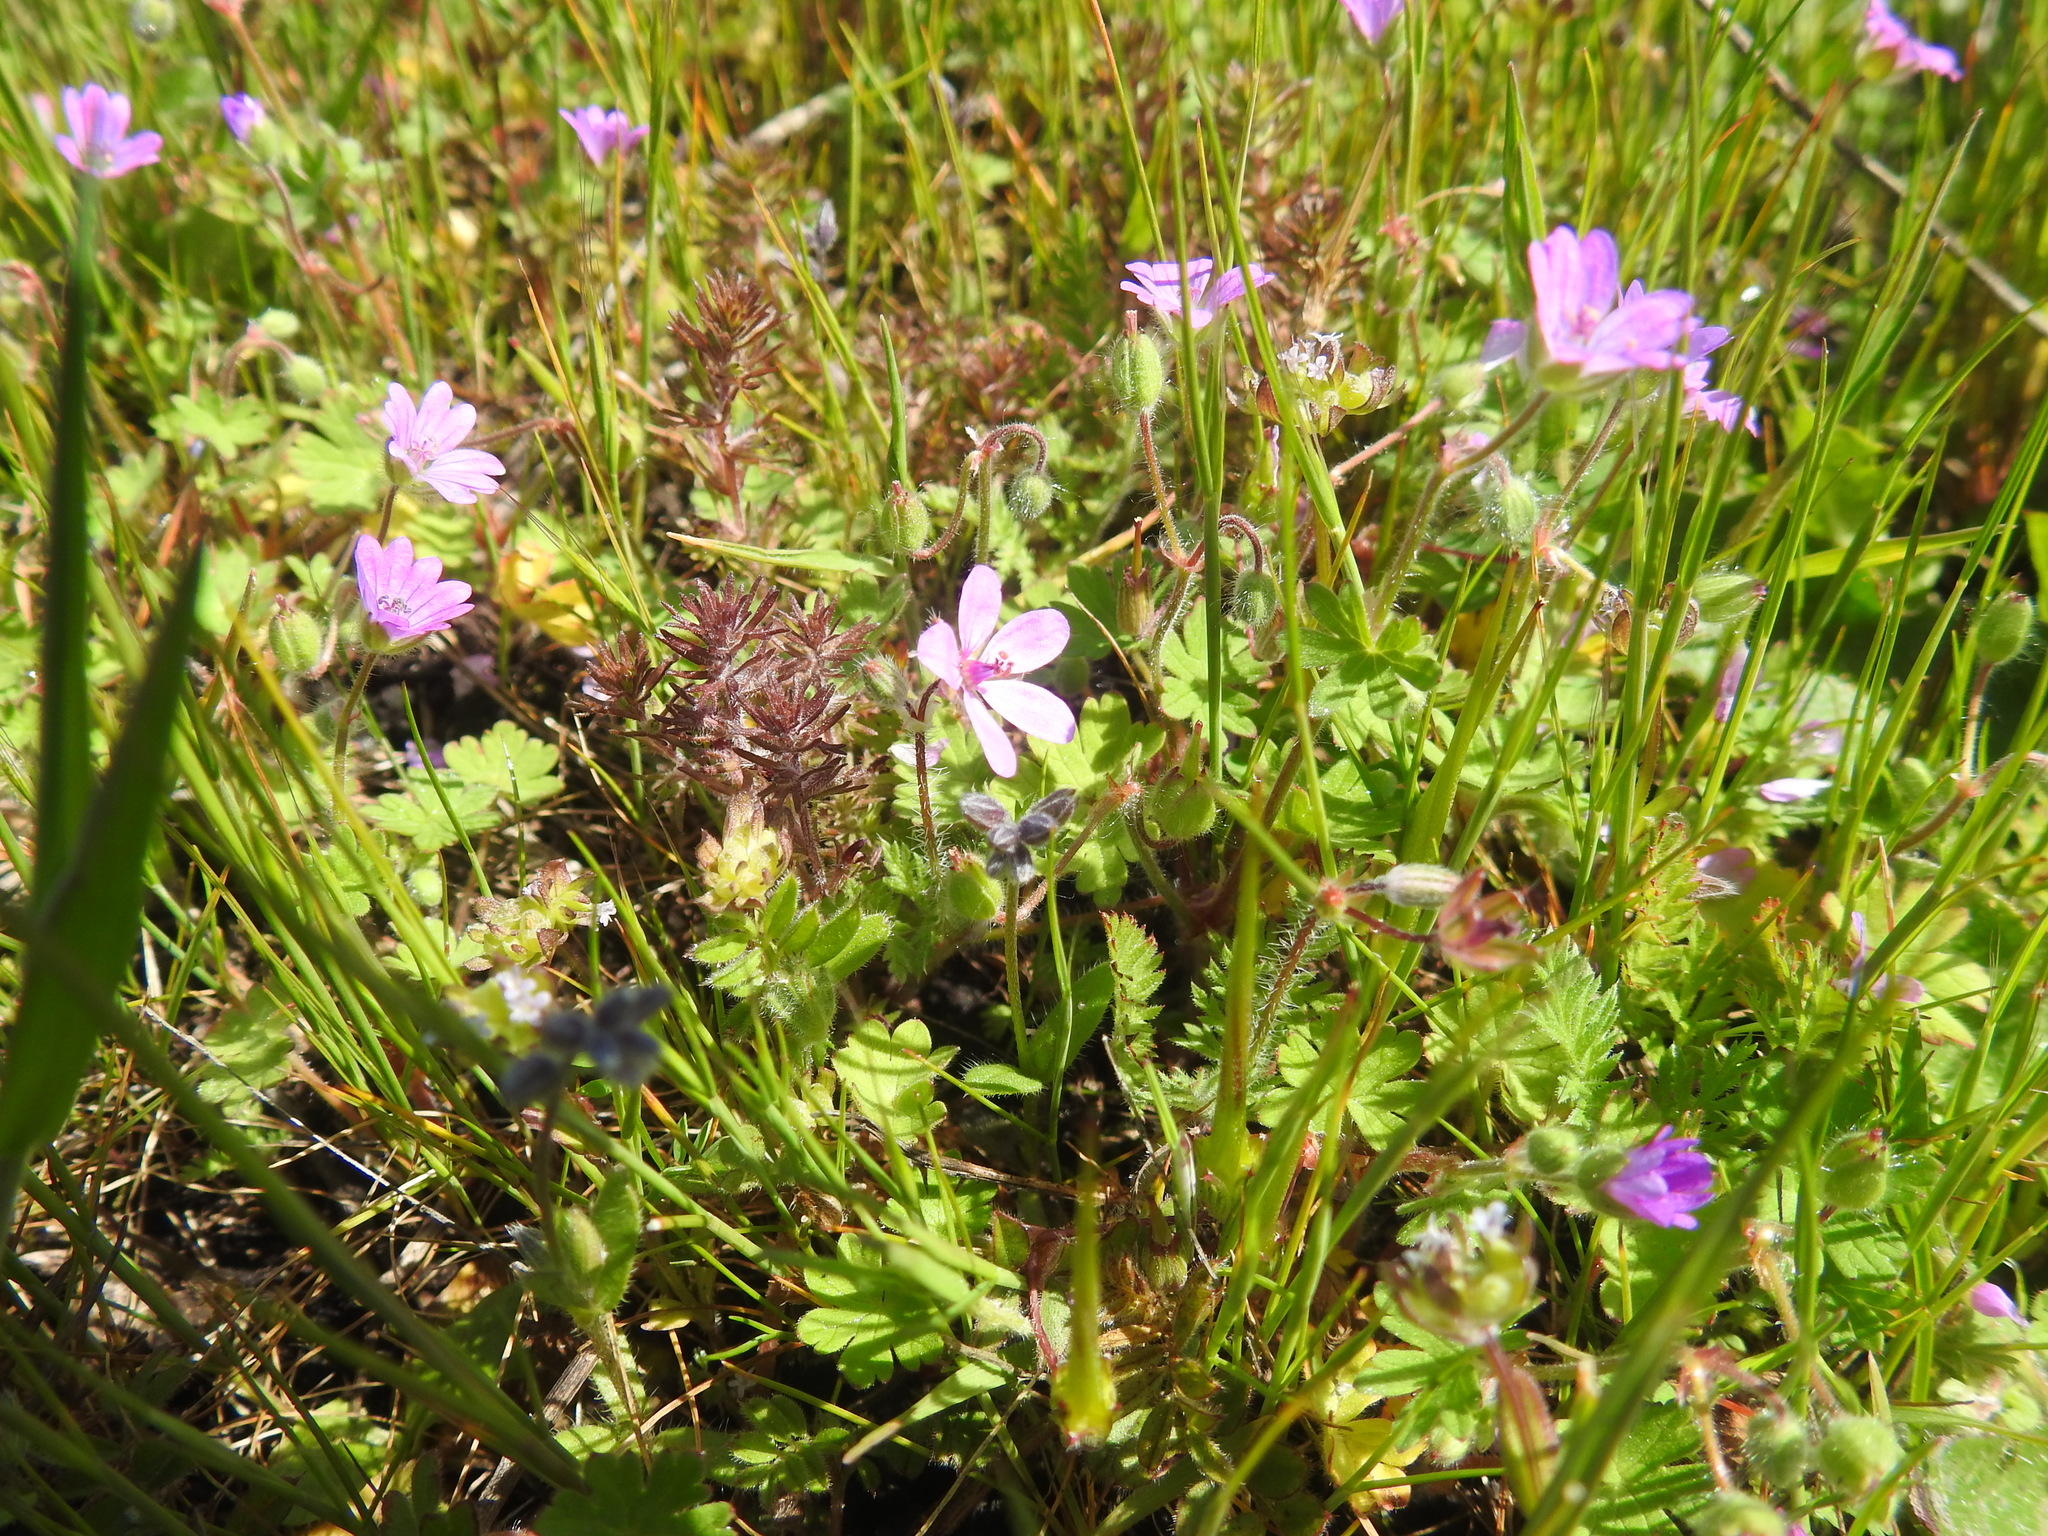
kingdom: Plantae
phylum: Tracheophyta
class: Magnoliopsida
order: Geraniales
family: Geraniaceae
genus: Erodium
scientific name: Erodium cicutarium
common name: Common stork's-bill
